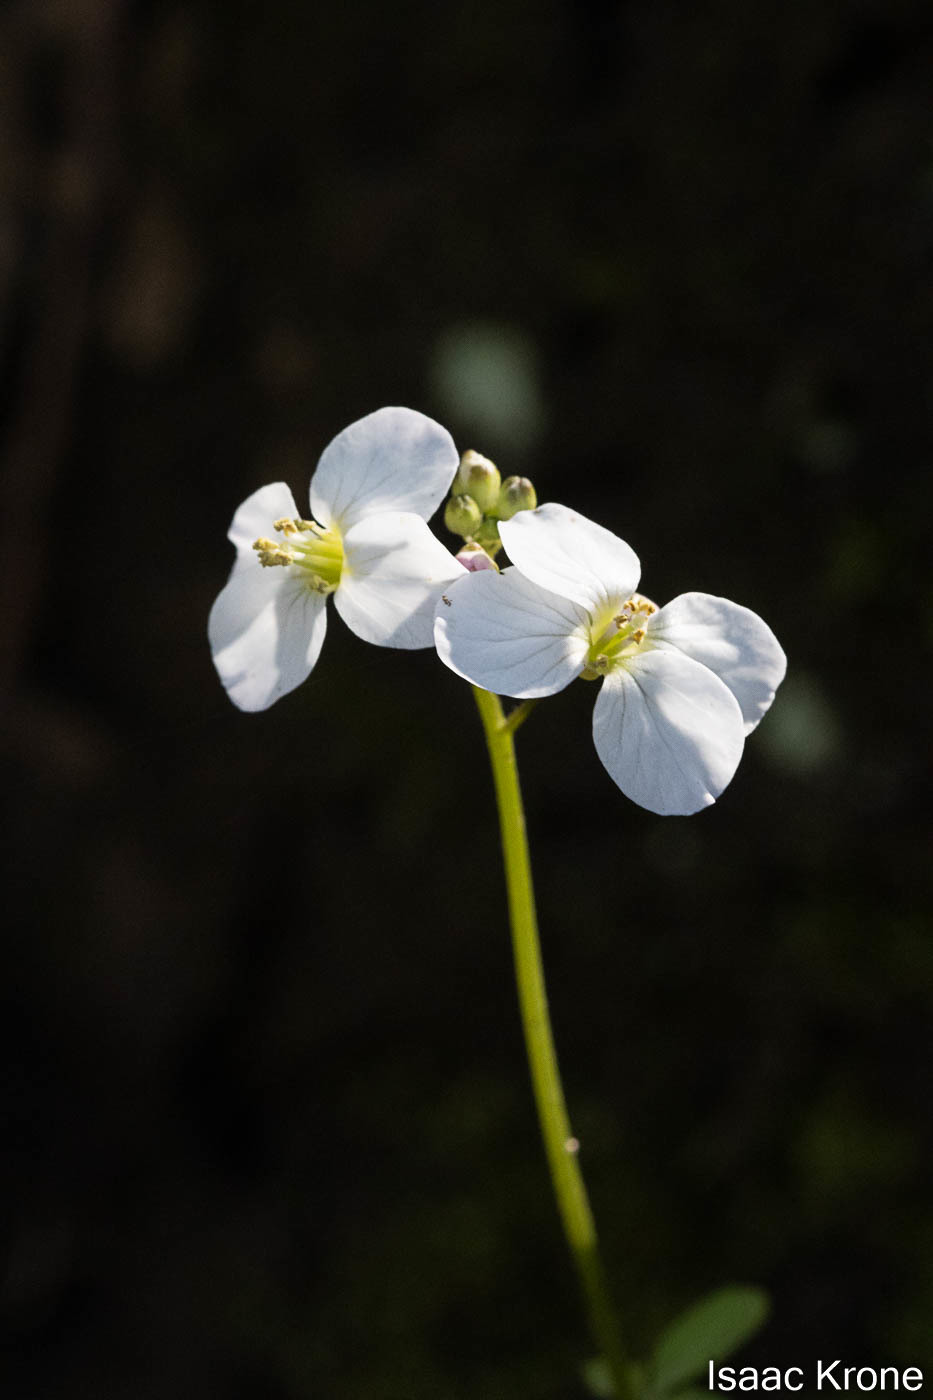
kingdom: Plantae
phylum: Tracheophyta
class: Magnoliopsida
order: Brassicales
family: Brassicaceae
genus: Cardamine
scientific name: Cardamine californica
